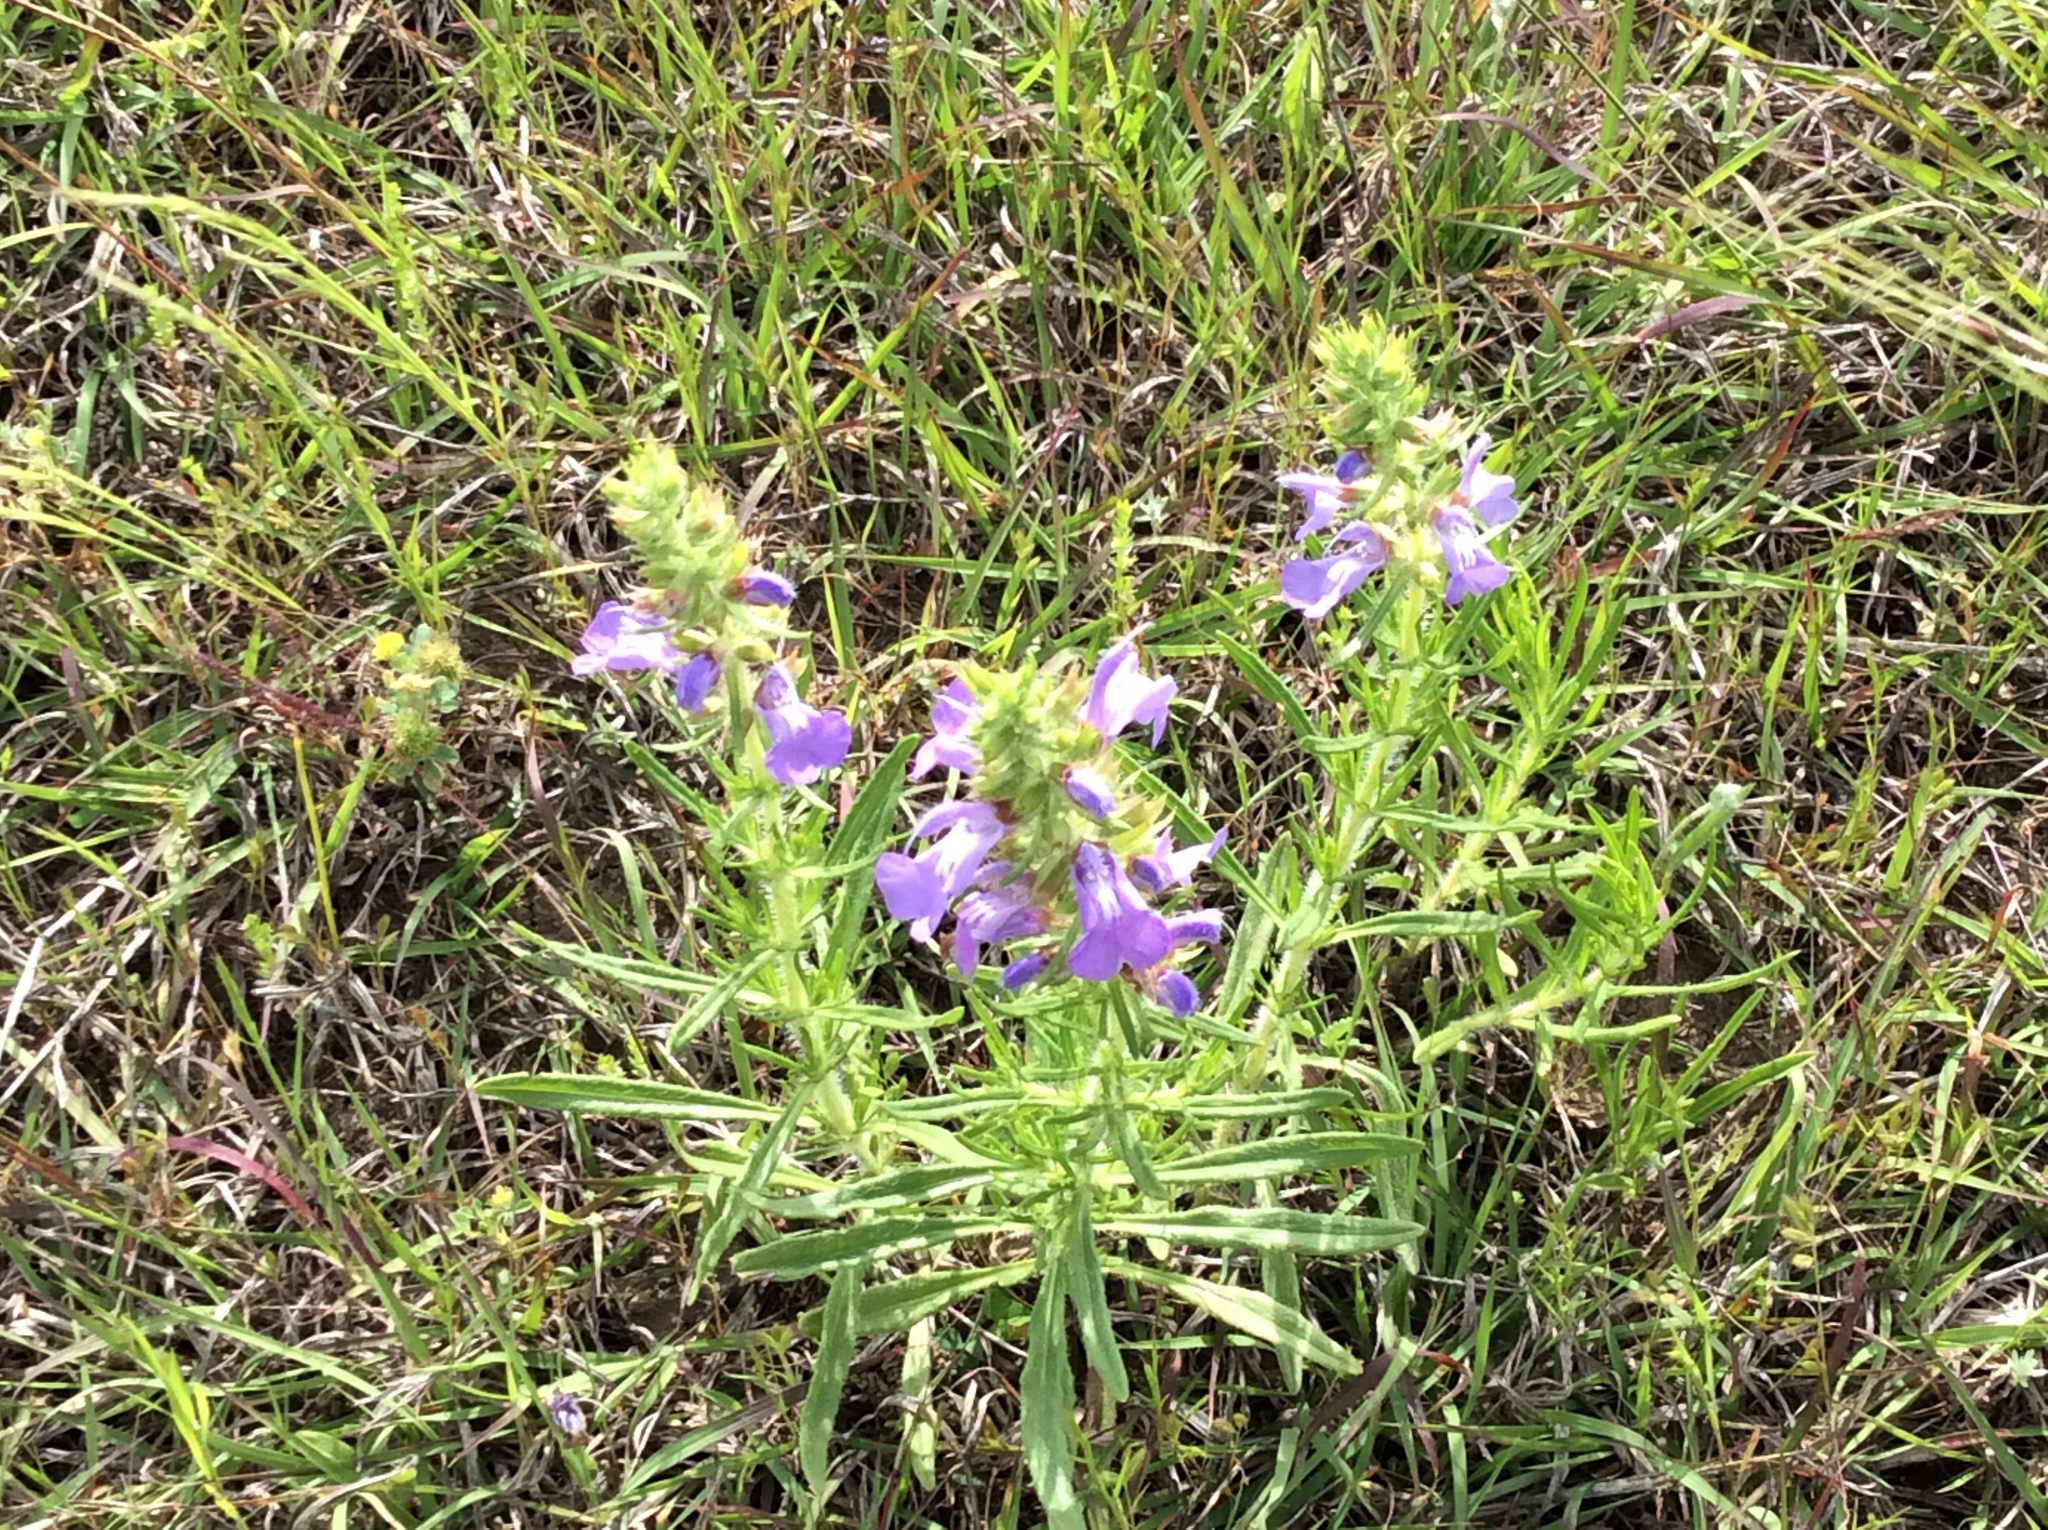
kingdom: Plantae
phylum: Tracheophyta
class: Magnoliopsida
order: Lamiales
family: Lamiaceae
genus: Salvia
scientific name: Salvia engelmannii
